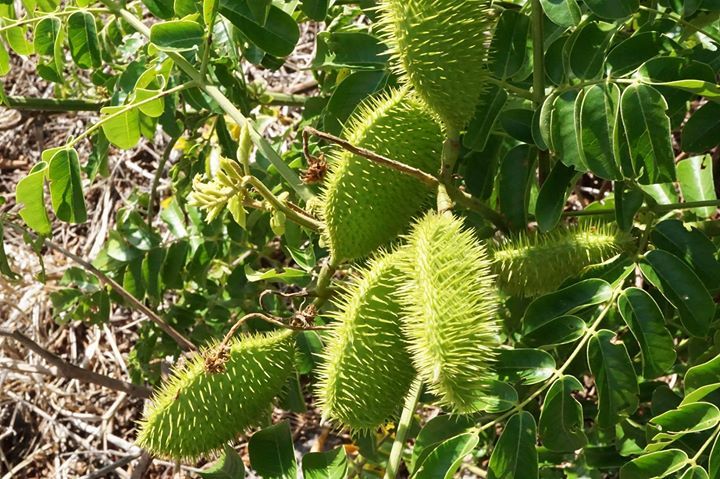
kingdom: Plantae
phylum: Tracheophyta
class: Magnoliopsida
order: Fabales
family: Fabaceae
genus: Guilandina
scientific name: Guilandina bonduc
